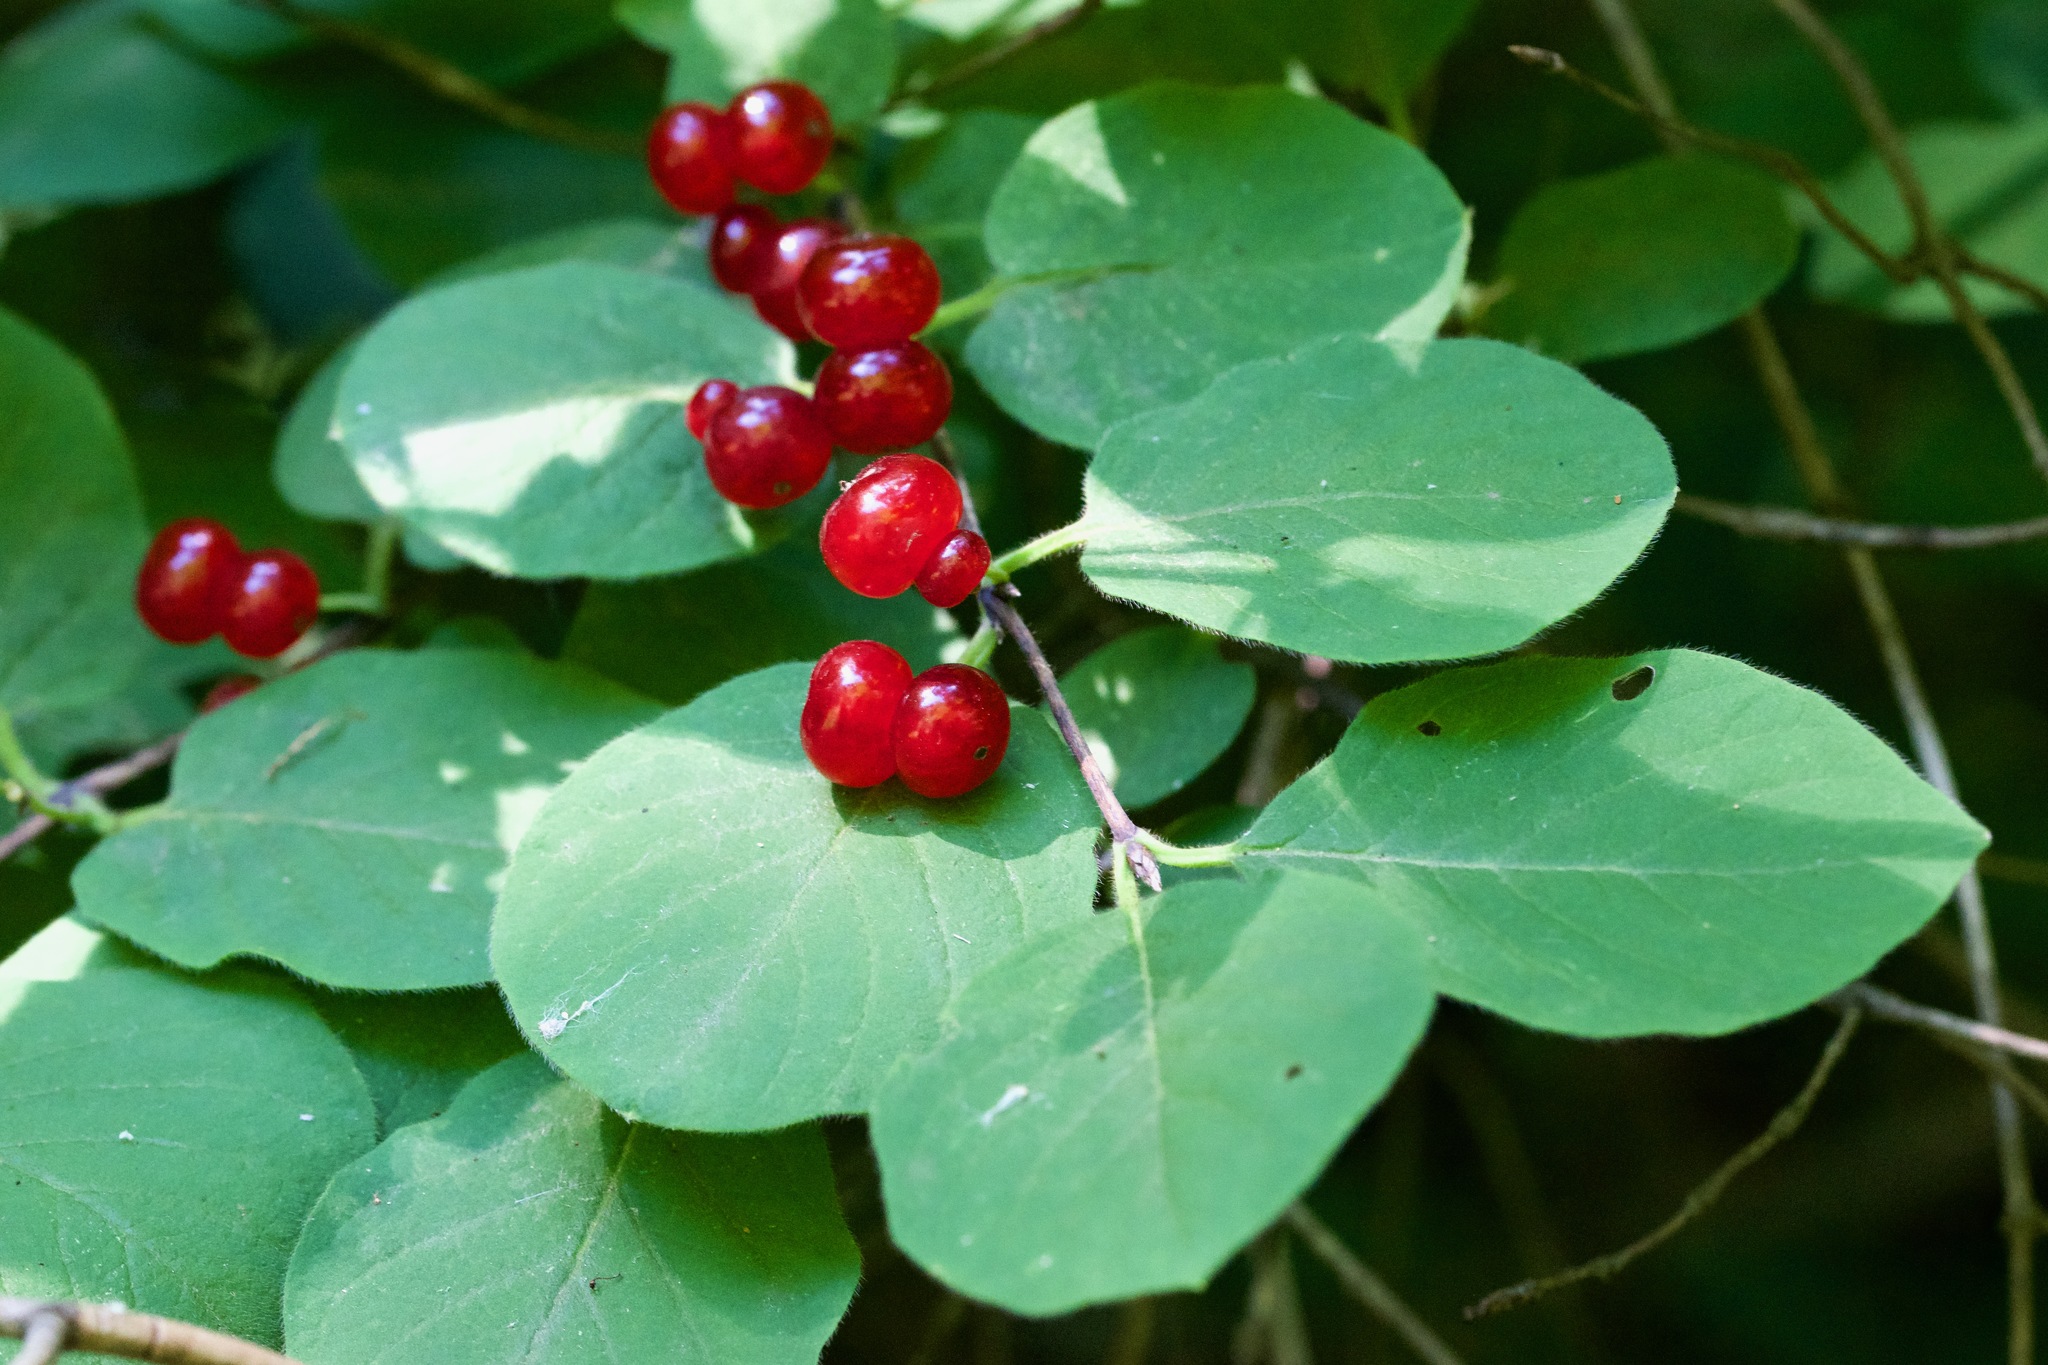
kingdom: Plantae
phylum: Tracheophyta
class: Magnoliopsida
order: Dipsacales
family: Caprifoliaceae
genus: Lonicera
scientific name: Lonicera xylosteum
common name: Fly honeysuckle
